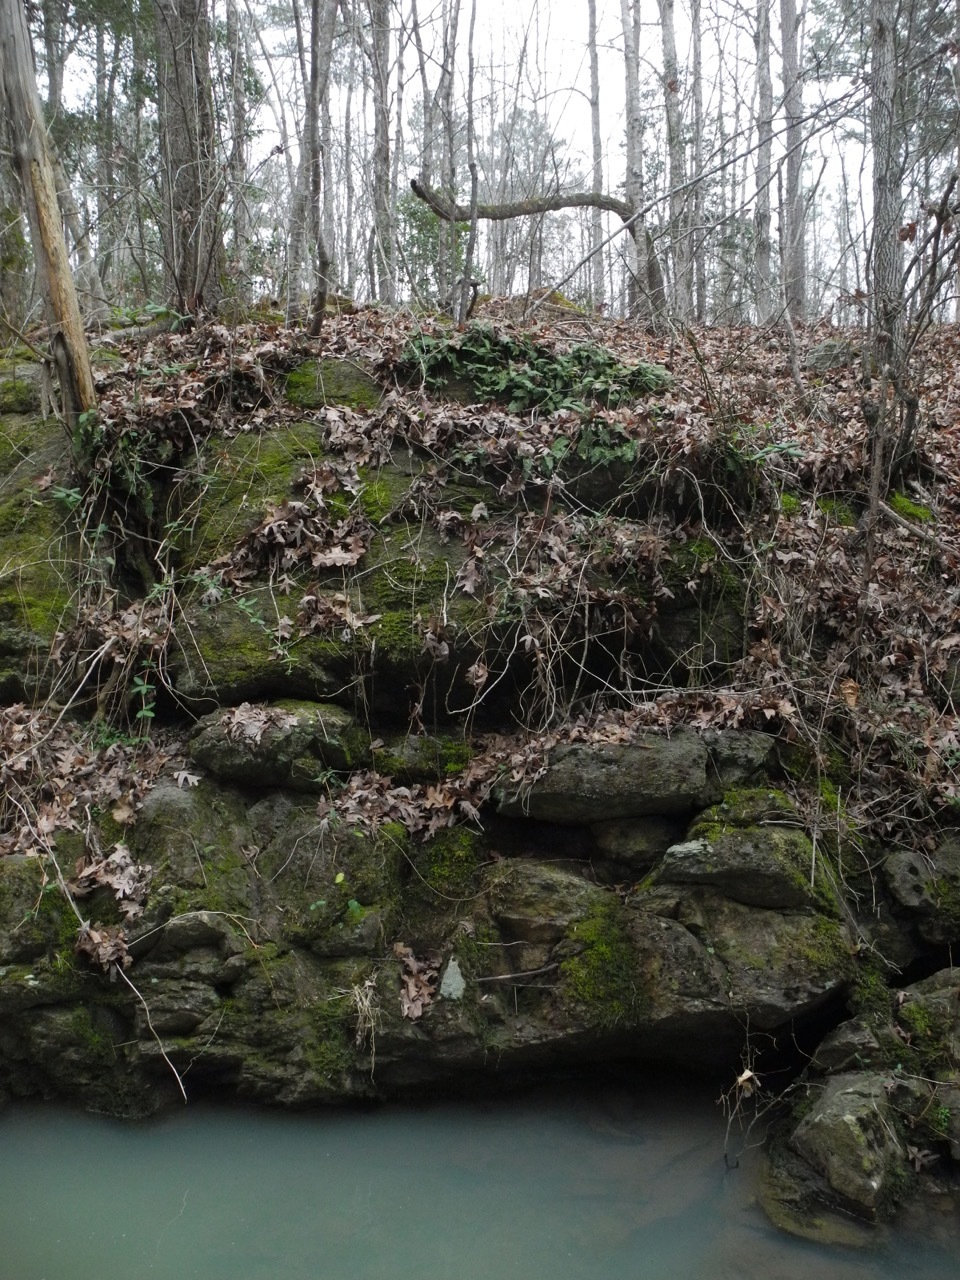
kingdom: Plantae
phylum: Tracheophyta
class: Polypodiopsida
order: Polypodiales
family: Polypodiaceae
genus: Pleopeltis
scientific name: Pleopeltis michauxiana
